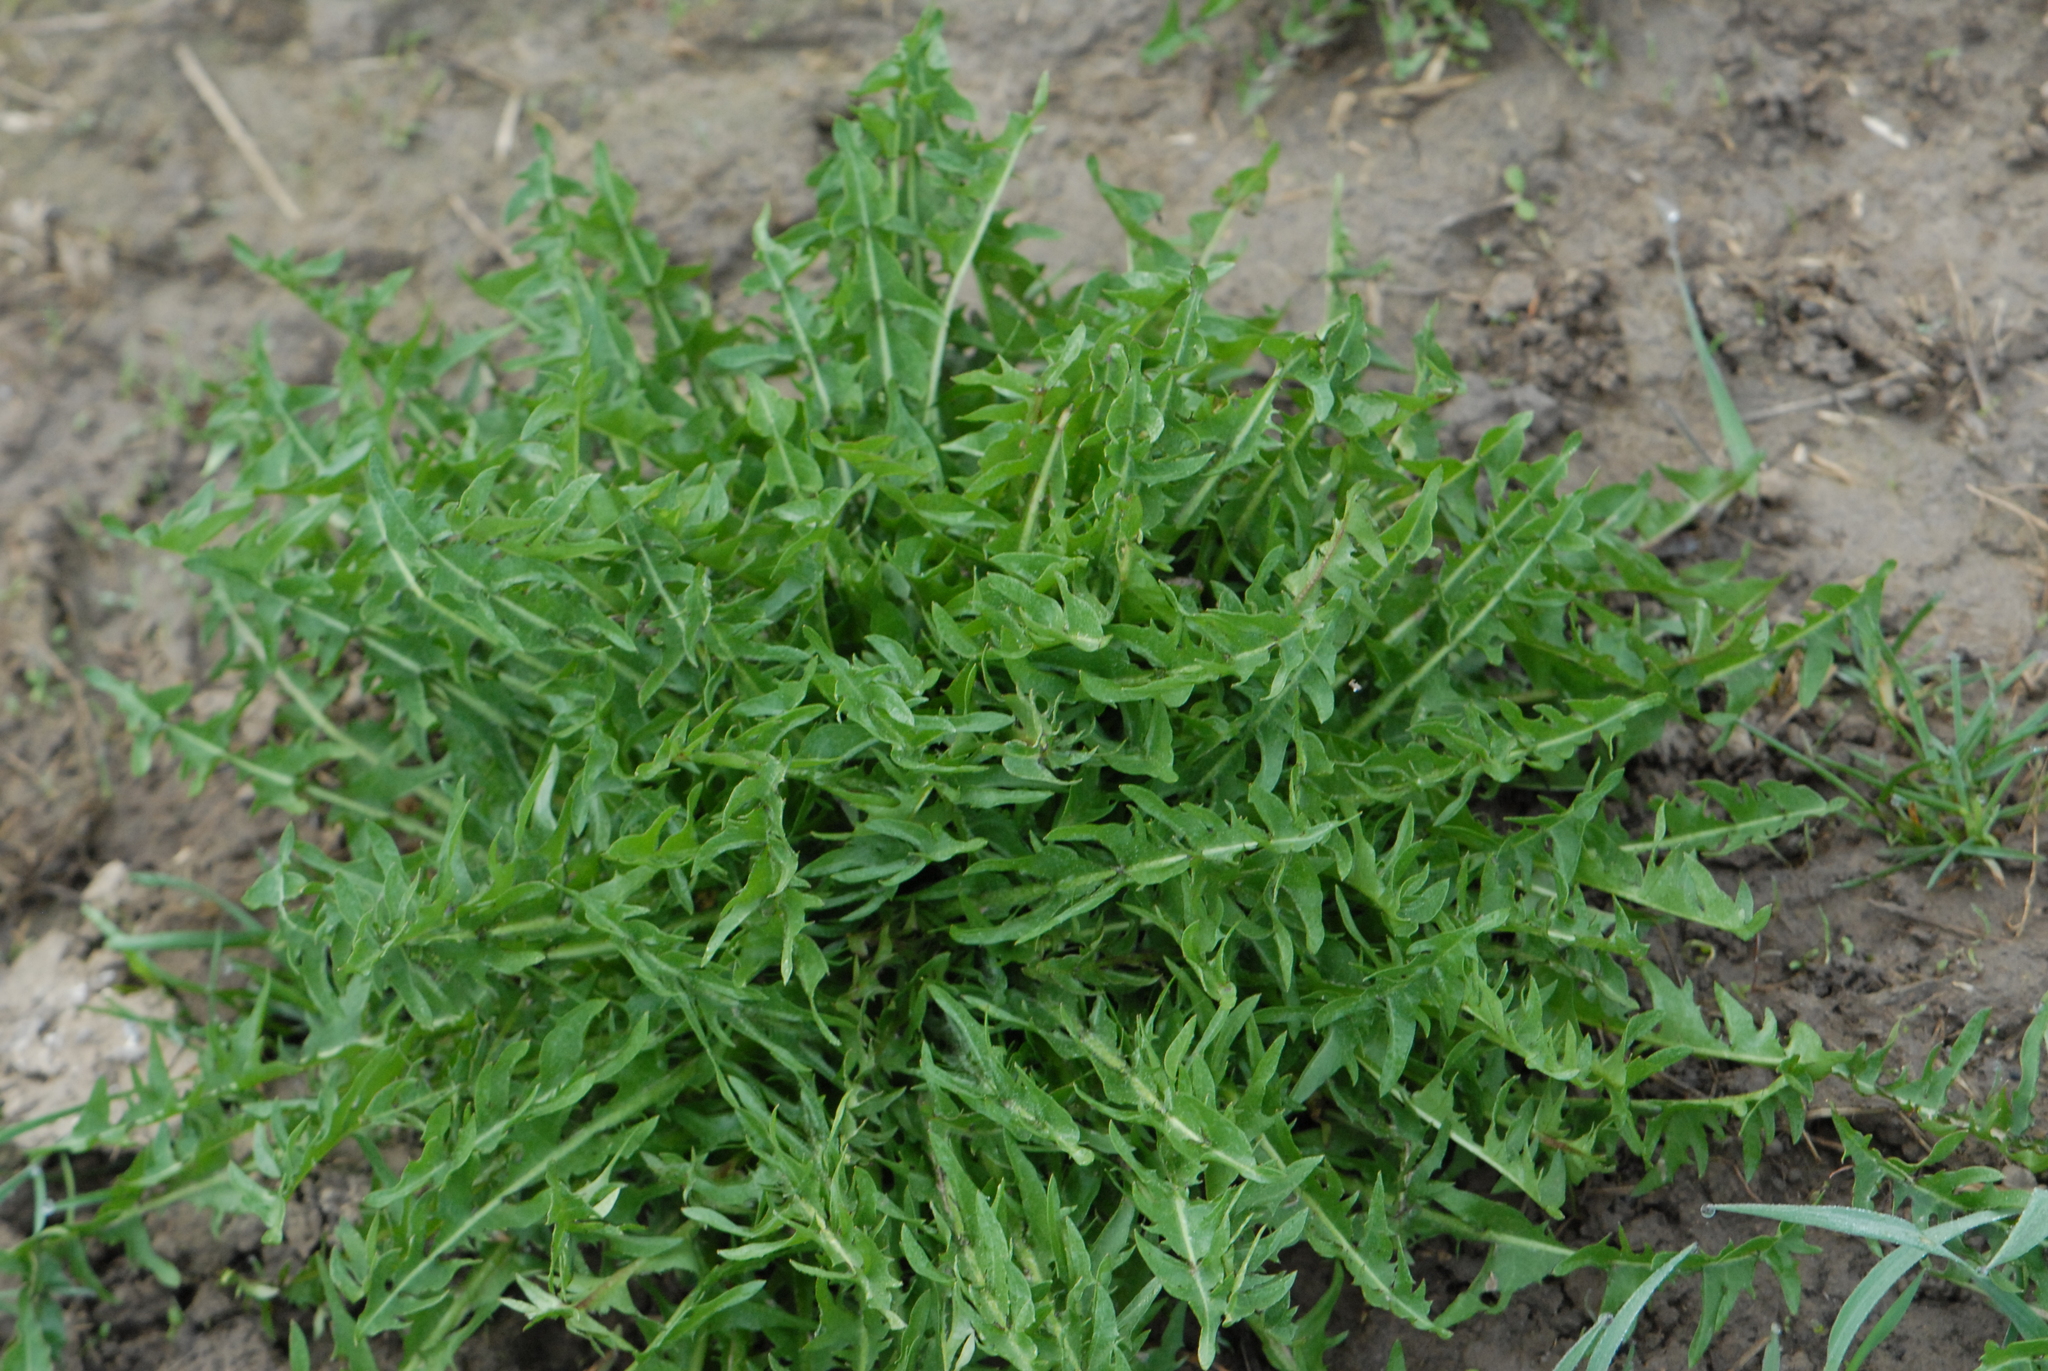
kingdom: Plantae
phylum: Tracheophyta
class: Magnoliopsida
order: Asterales
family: Asteraceae
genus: Taraxacum
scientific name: Taraxacum officinale
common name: Common dandelion
